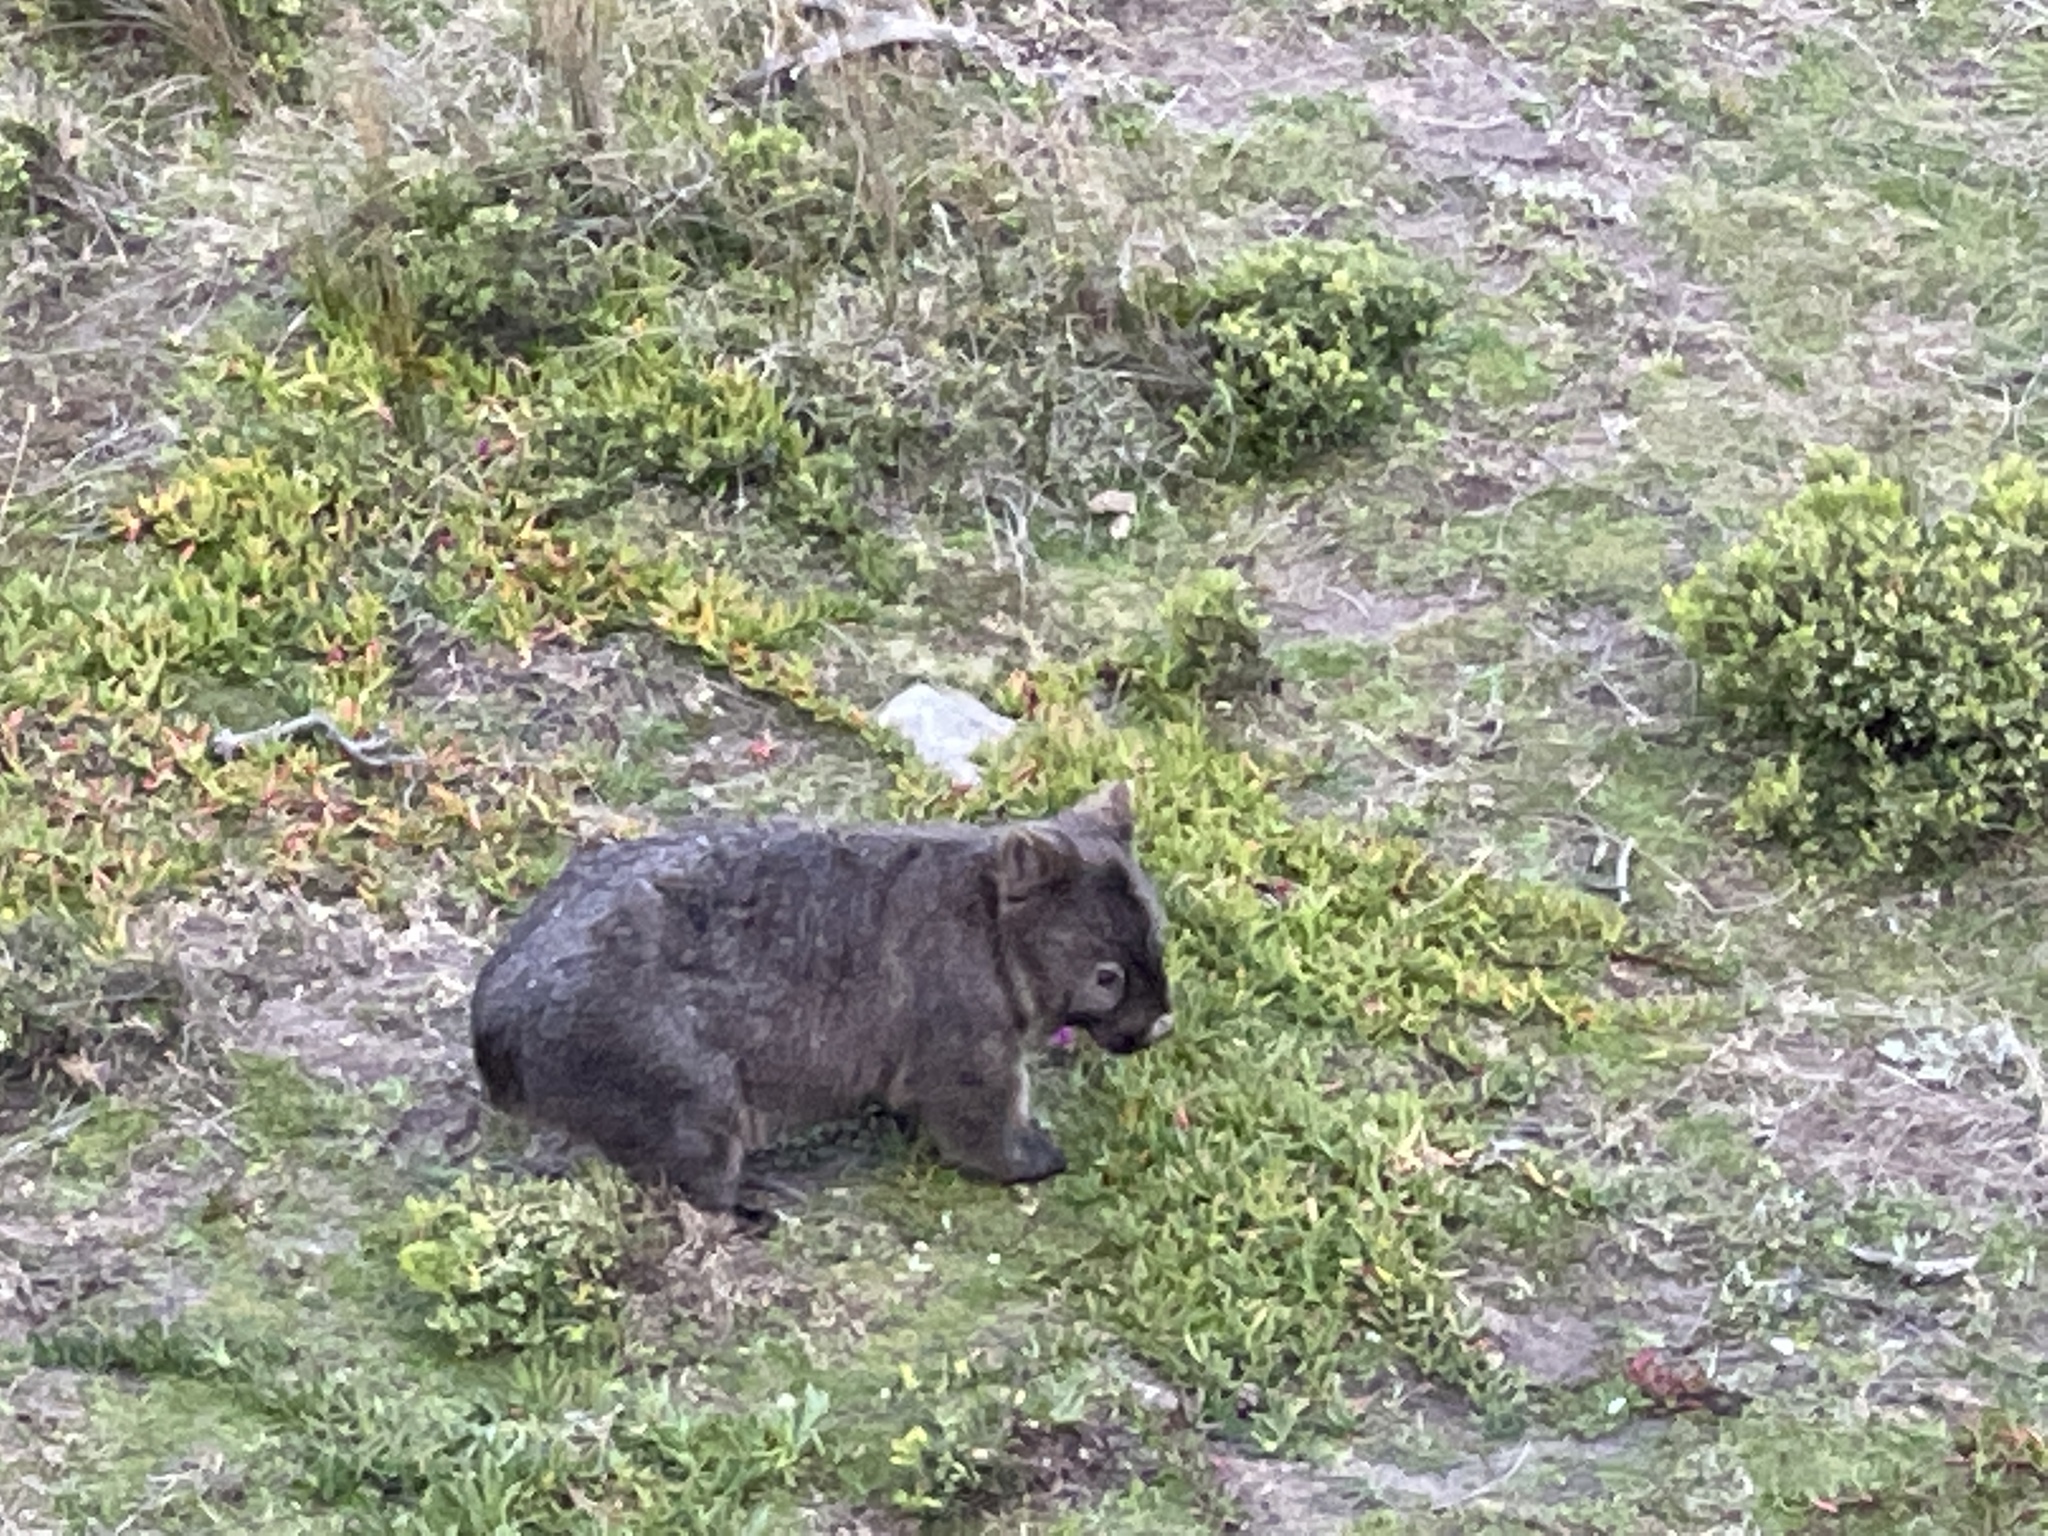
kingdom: Animalia
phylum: Chordata
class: Mammalia
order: Diprotodontia
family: Vombatidae
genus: Vombatus
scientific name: Vombatus ursinus
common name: Common wombat
